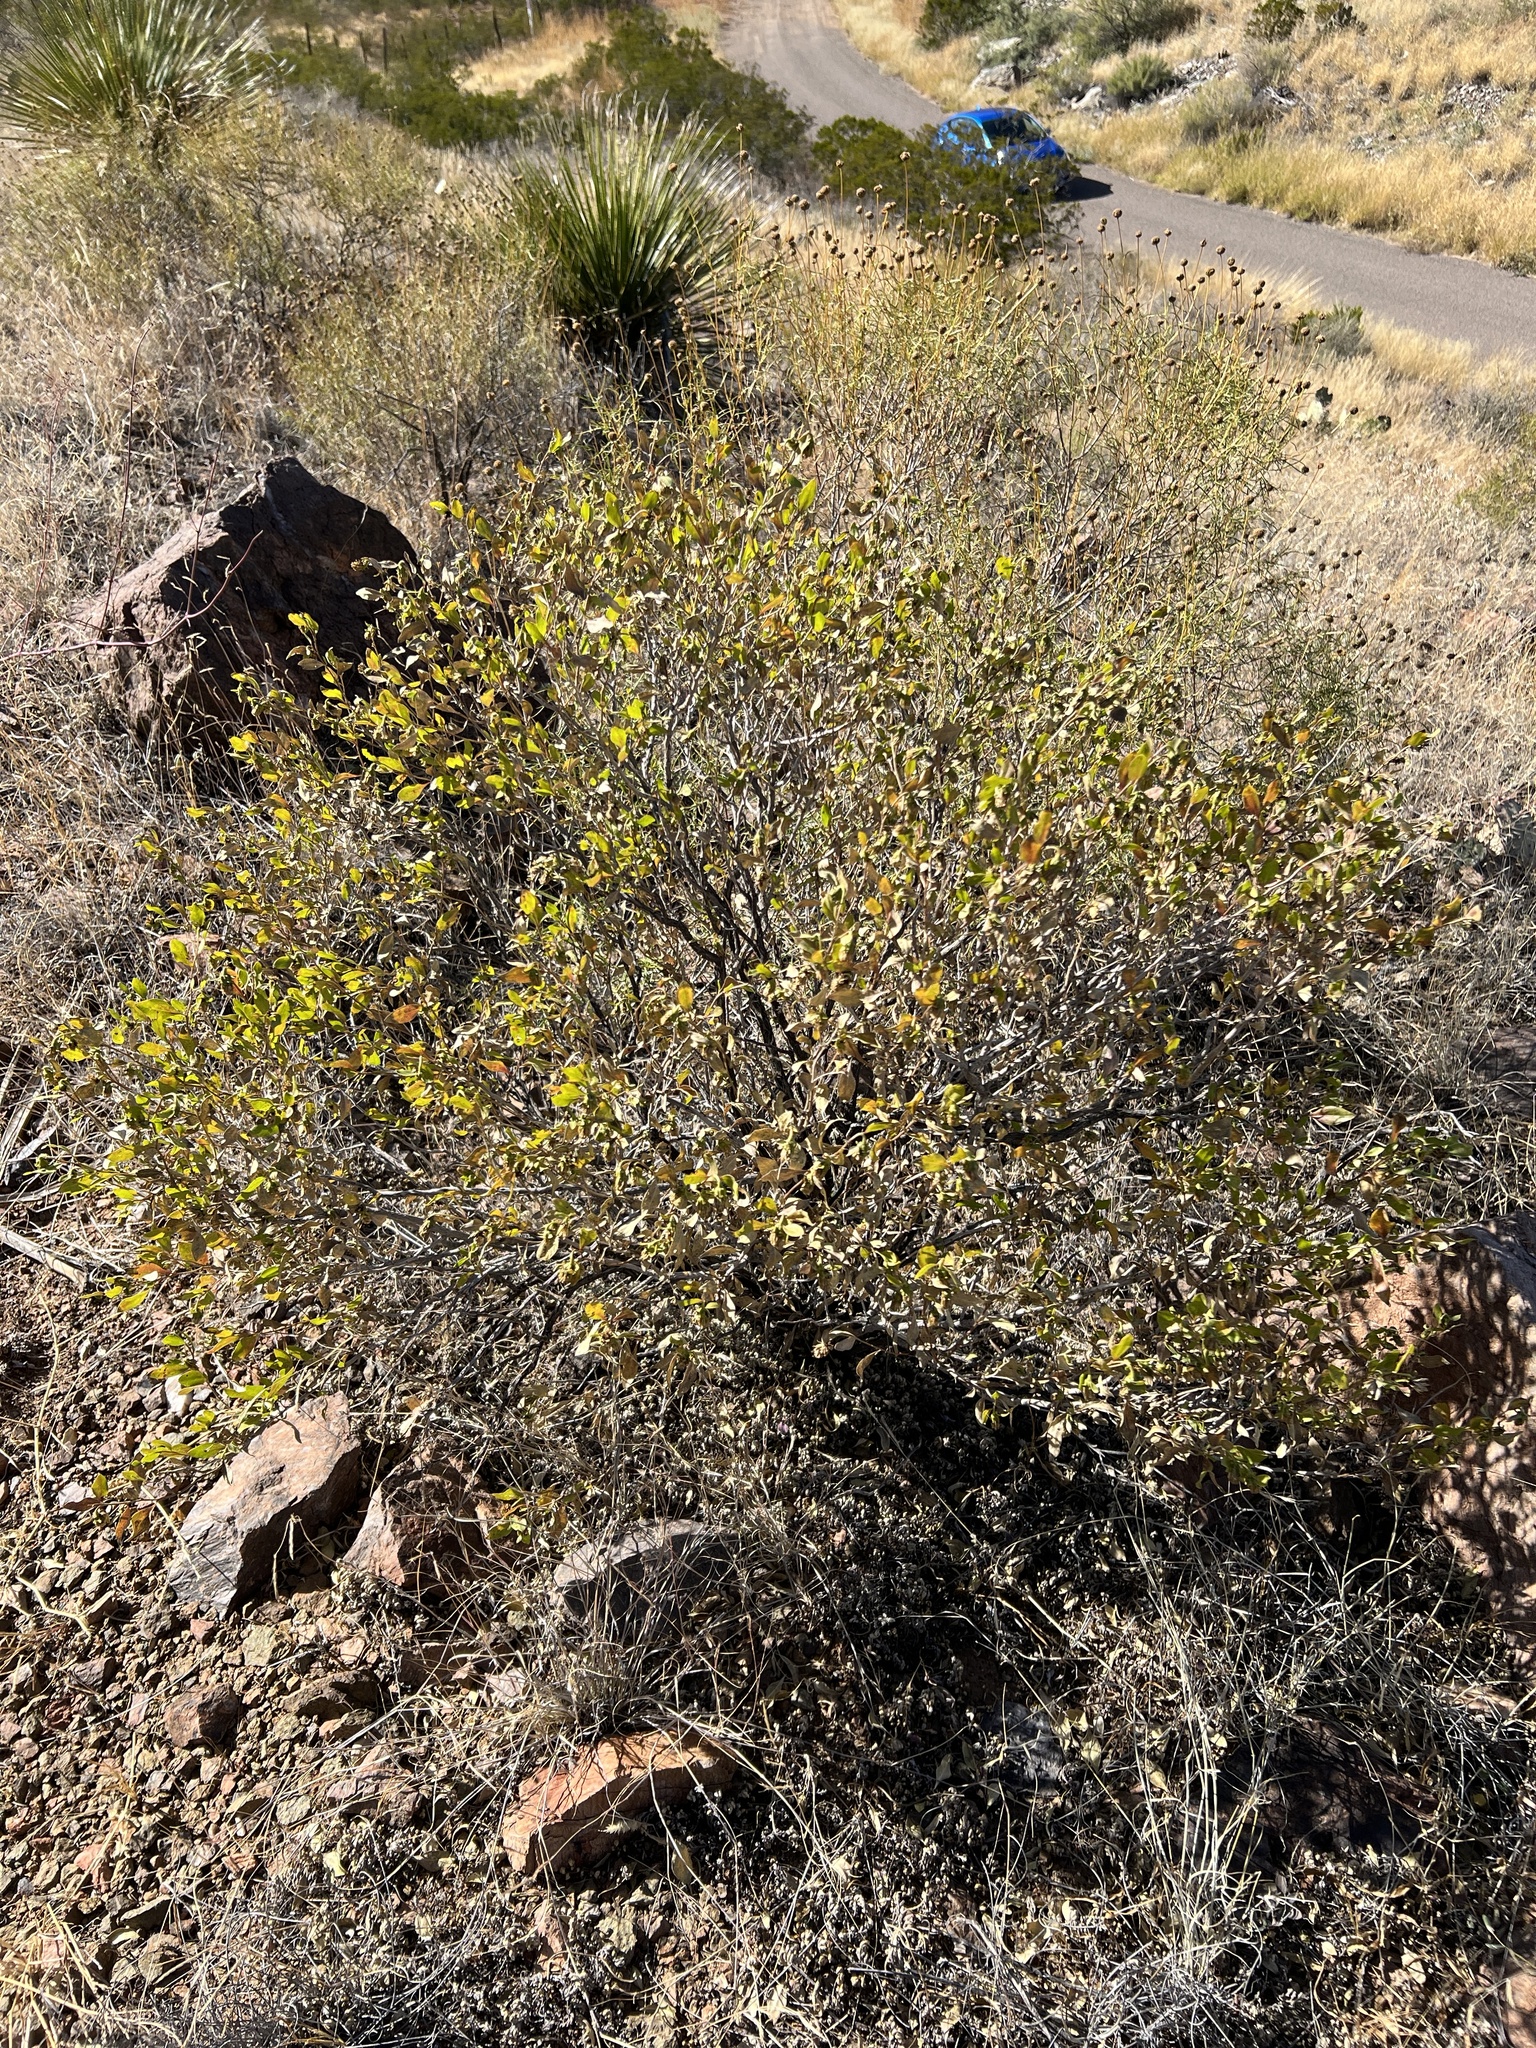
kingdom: Plantae
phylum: Tracheophyta
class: Magnoliopsida
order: Asterales
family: Asteraceae
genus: Flourensia
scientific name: Flourensia cernua
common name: Varnishbush
